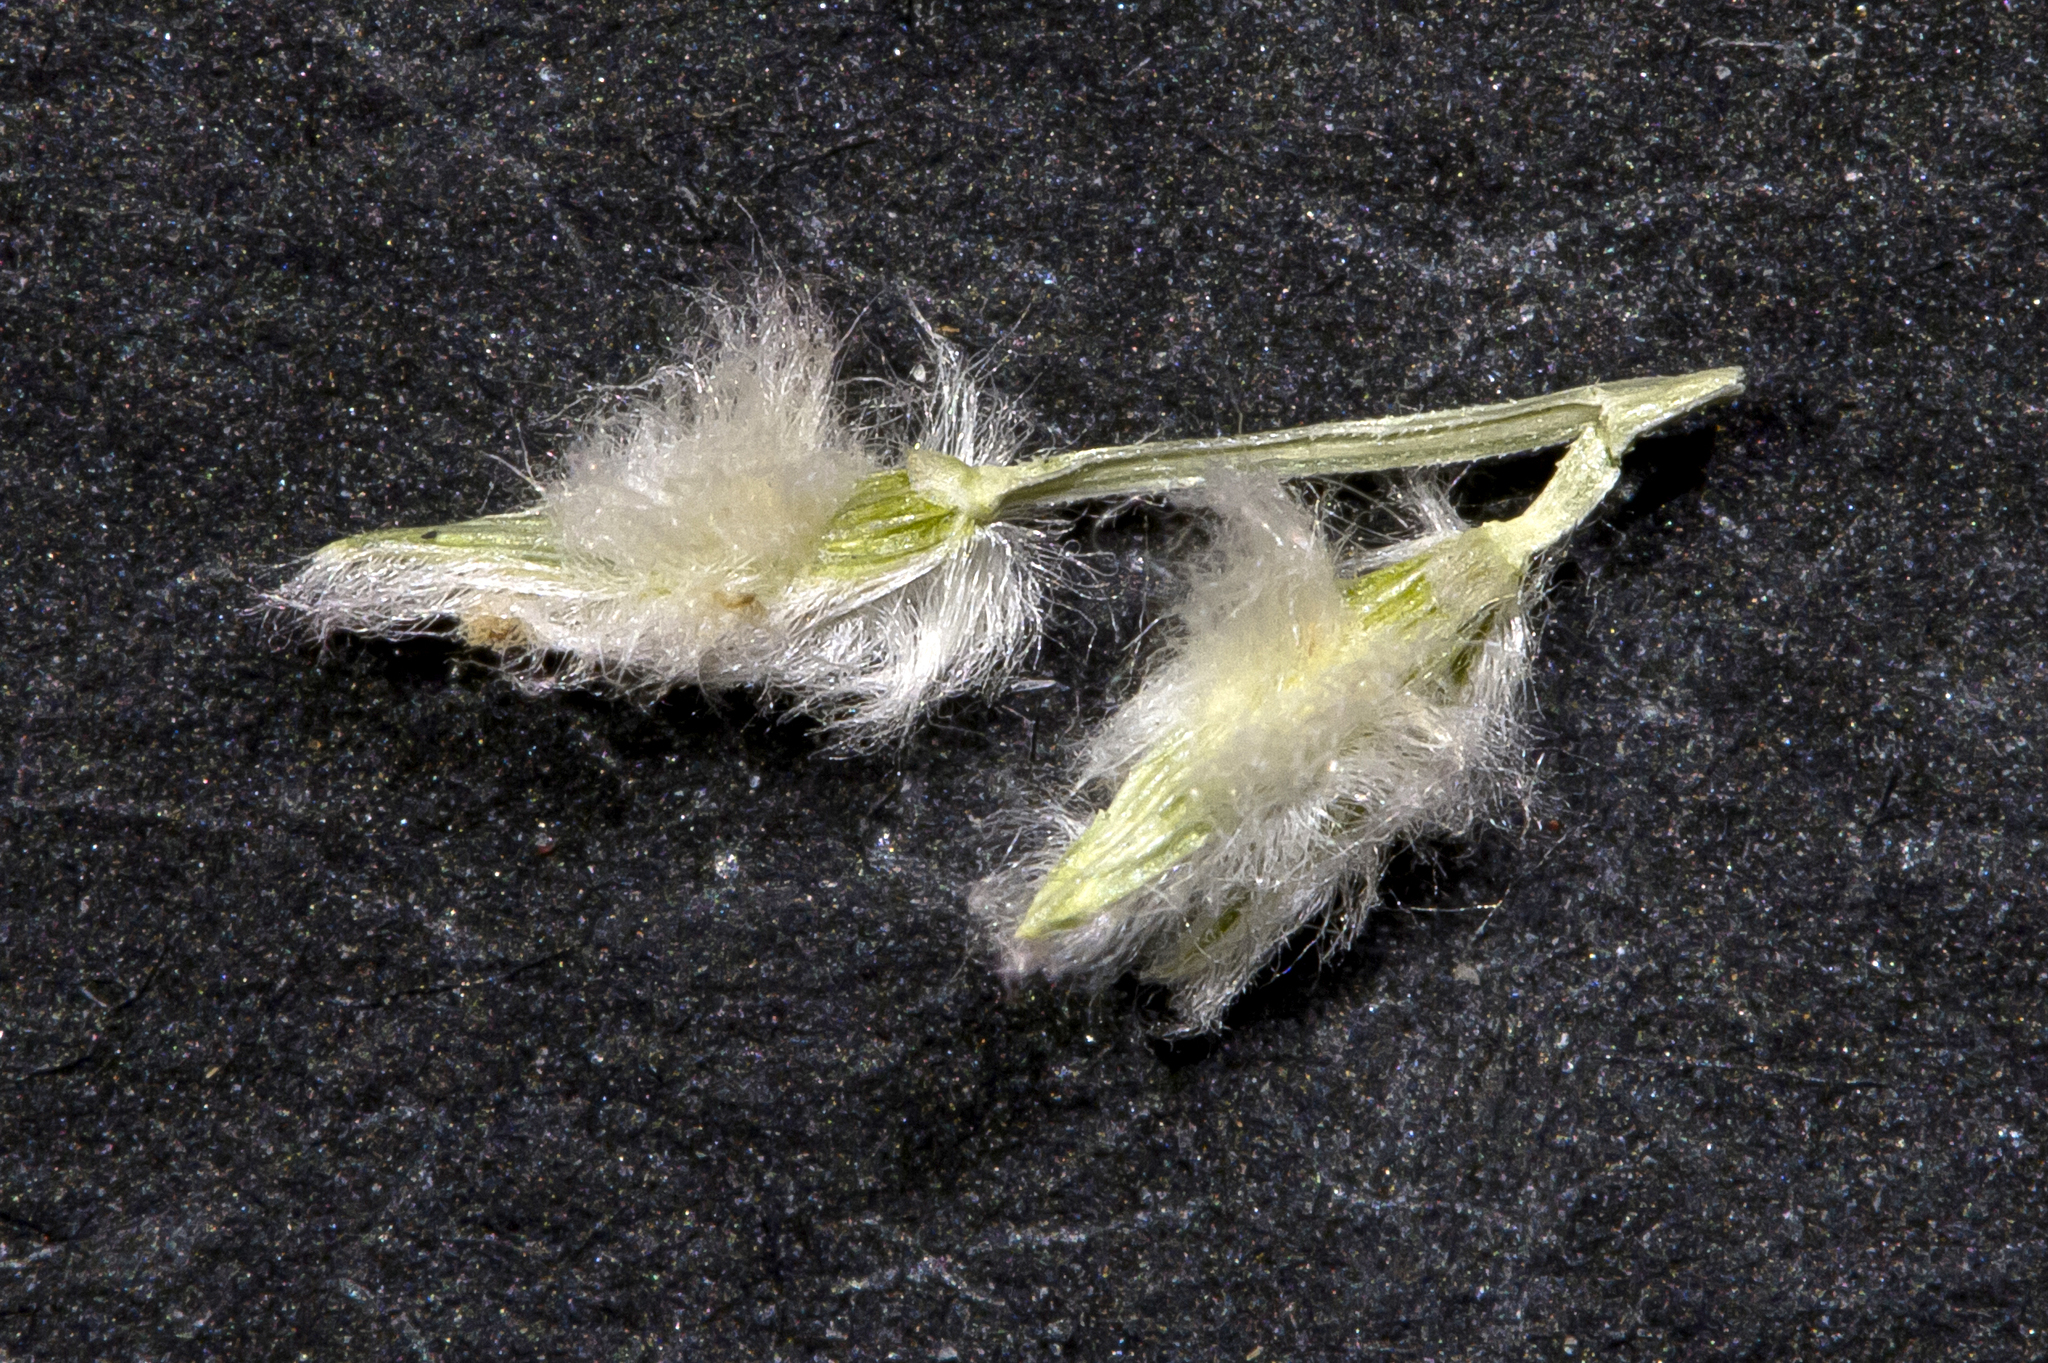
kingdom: Plantae
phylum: Tracheophyta
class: Liliopsida
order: Poales
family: Poaceae
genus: Digitaria
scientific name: Digitaria hubbardii
